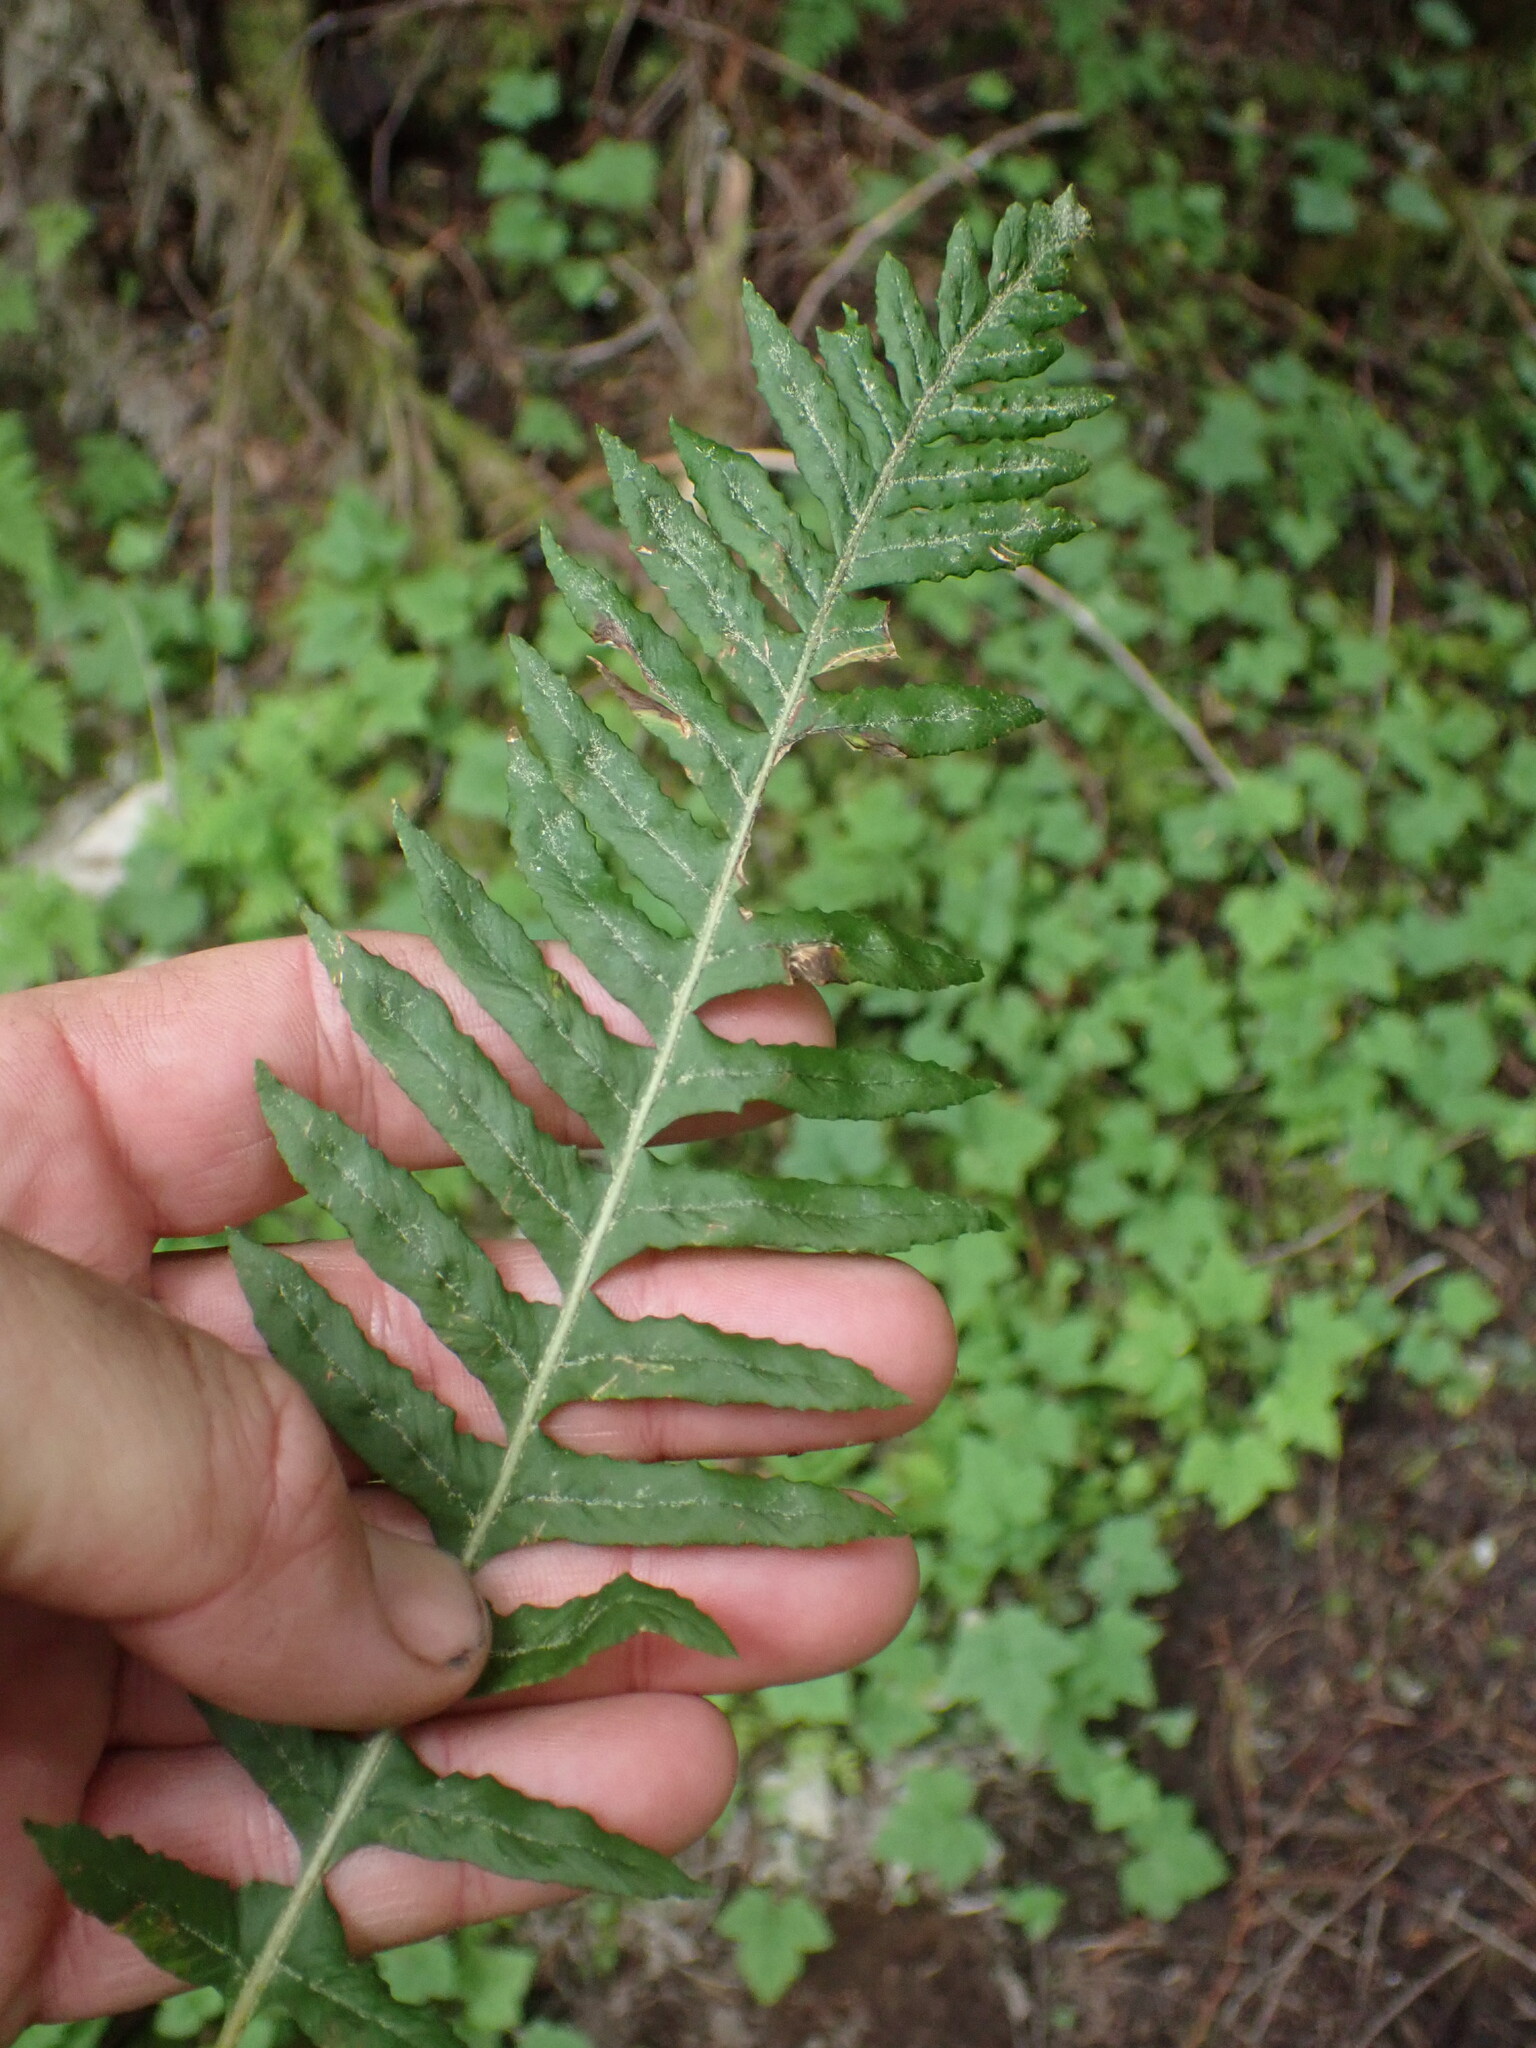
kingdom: Plantae
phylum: Tracheophyta
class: Polypodiopsida
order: Polypodiales
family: Polypodiaceae
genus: Polypodium
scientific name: Polypodium glycyrrhiza
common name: Licorice fern
